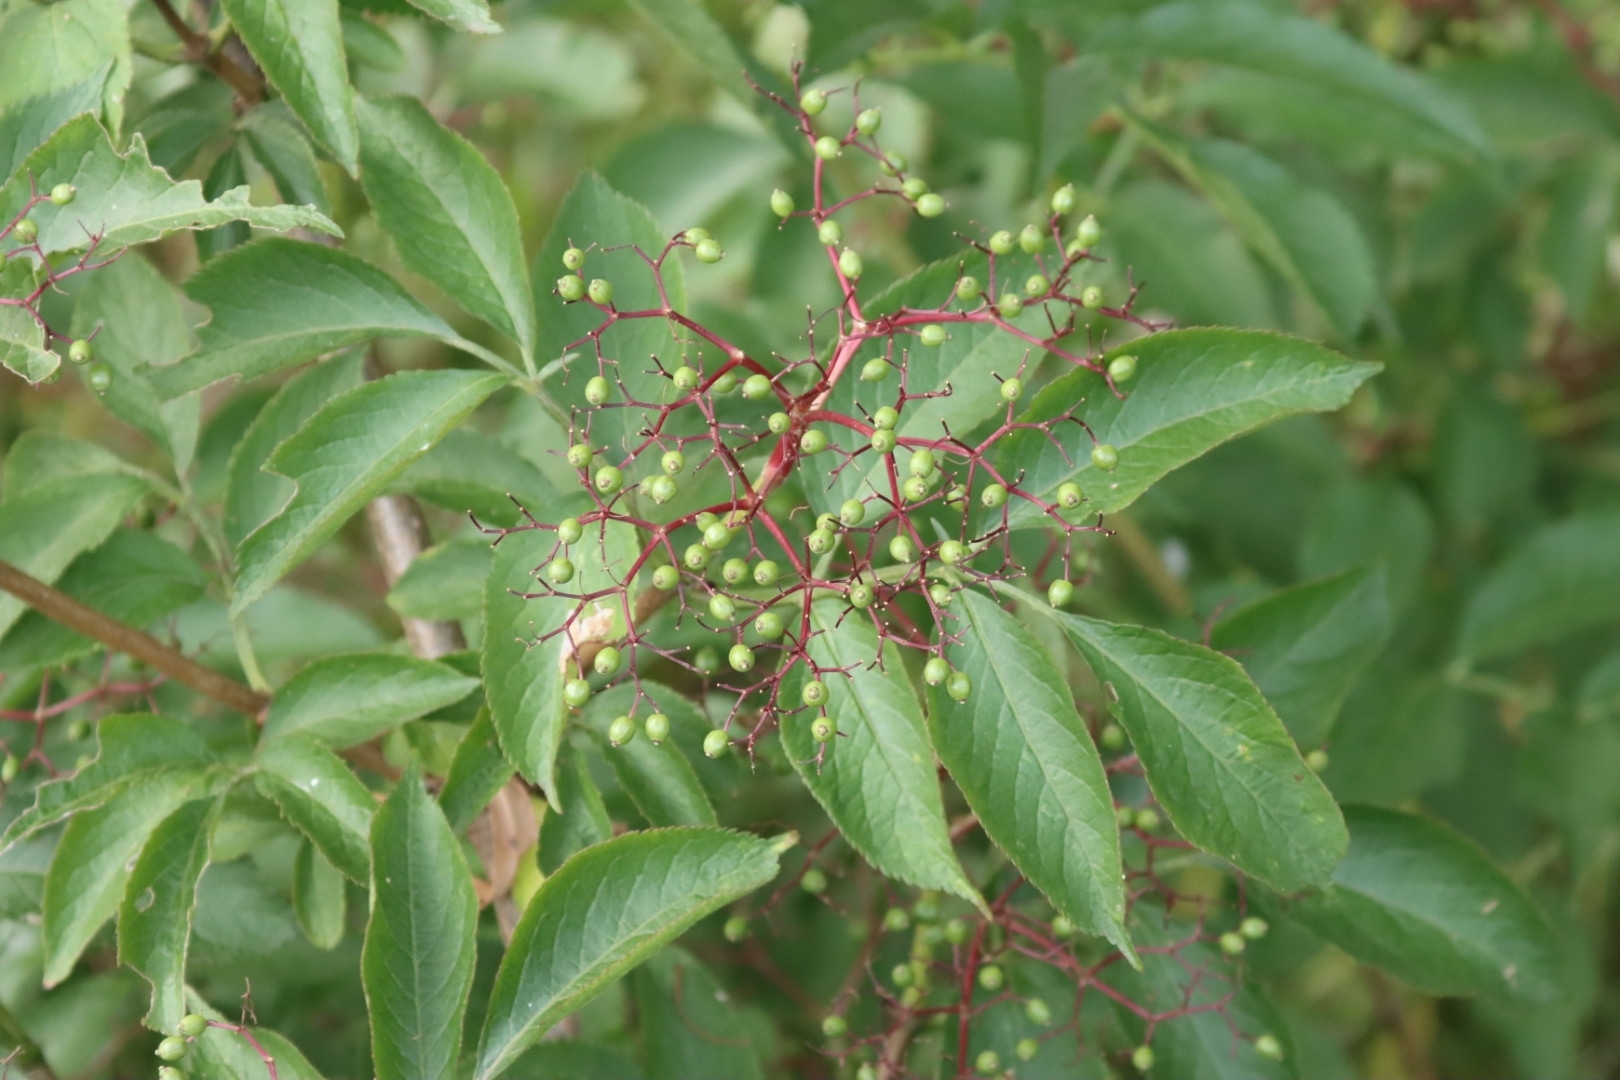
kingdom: Plantae
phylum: Tracheophyta
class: Magnoliopsida
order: Dipsacales
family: Viburnaceae
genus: Sambucus
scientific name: Sambucus nigra
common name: Elder
